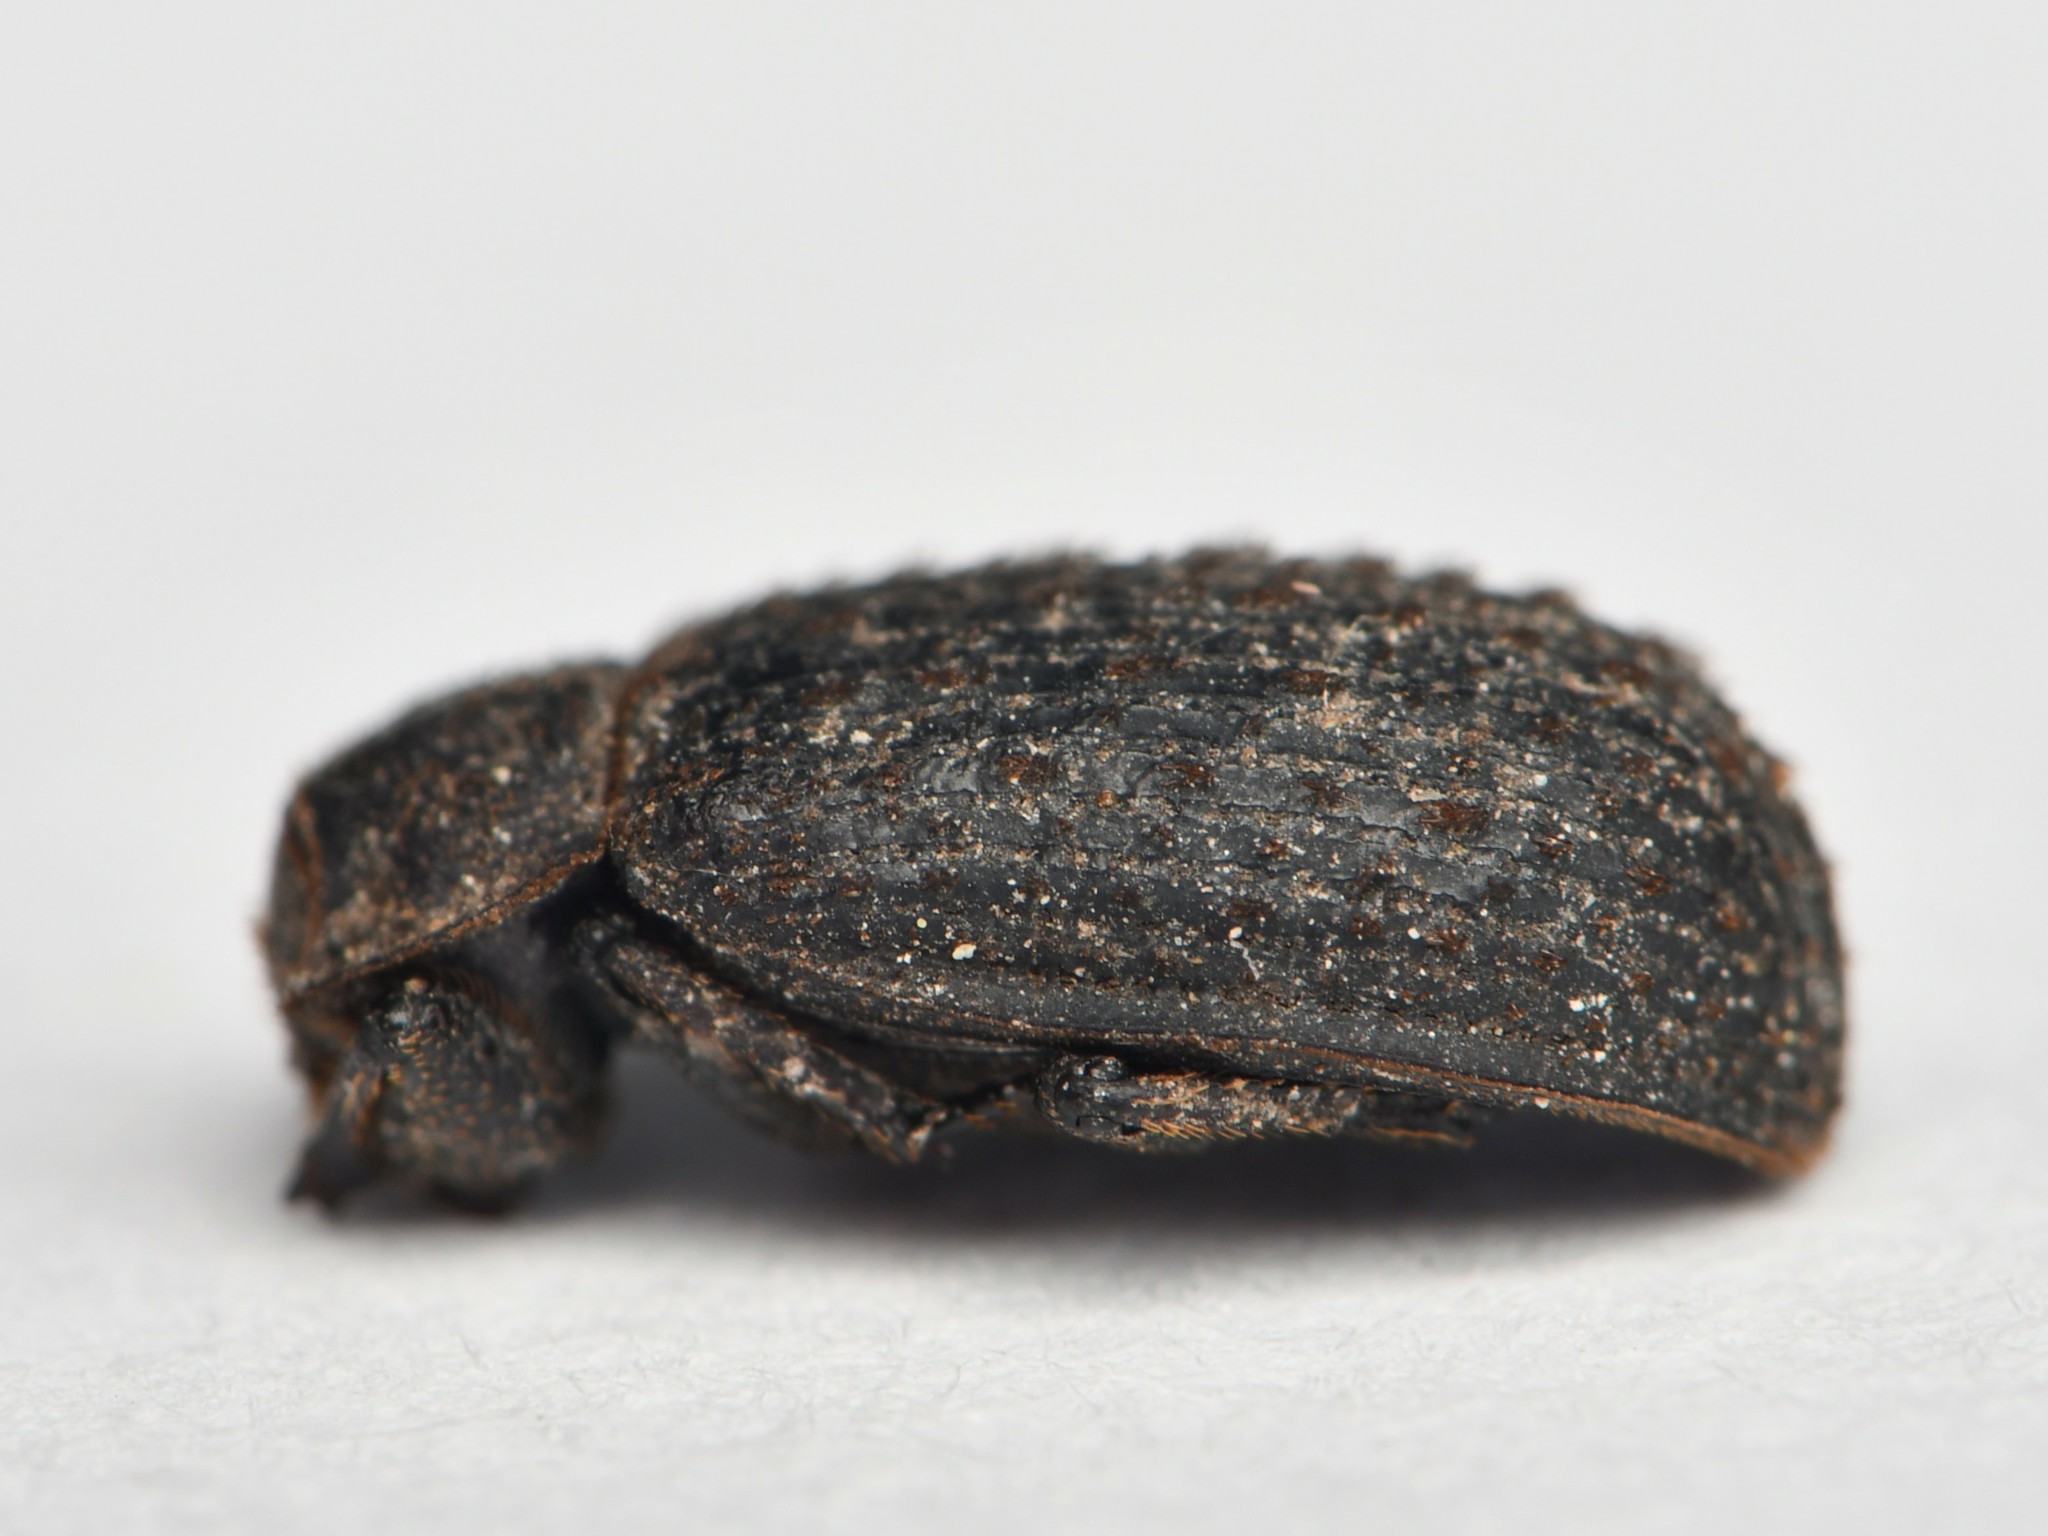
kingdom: Animalia
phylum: Arthropoda
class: Insecta
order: Coleoptera
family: Trogidae
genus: Trox
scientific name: Trox scaber
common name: Hide beetle
